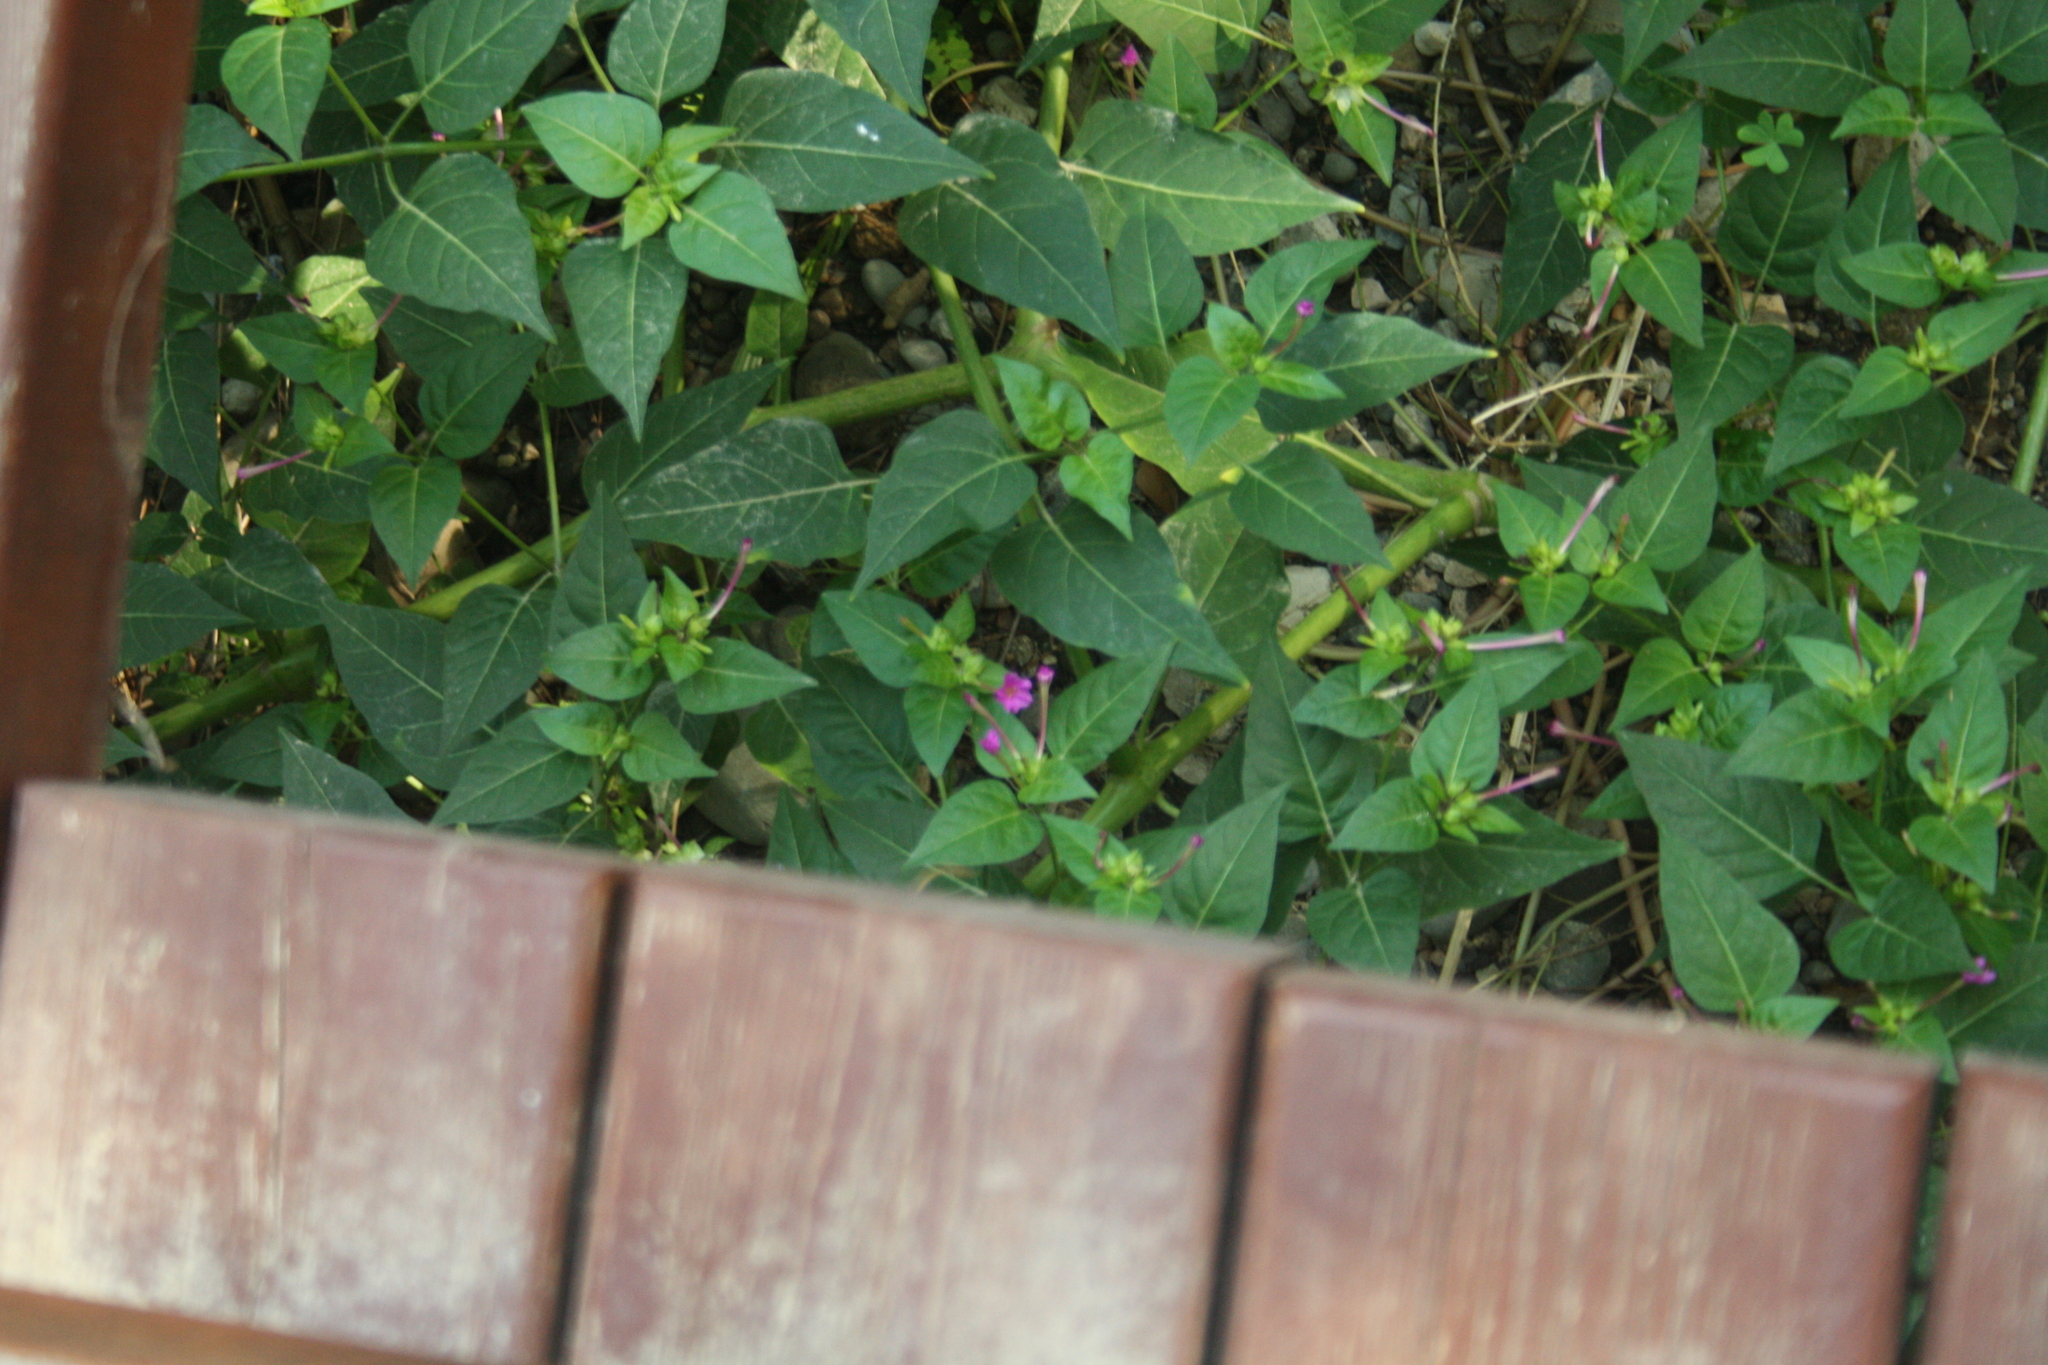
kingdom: Plantae
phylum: Tracheophyta
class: Magnoliopsida
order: Caryophyllales
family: Nyctaginaceae
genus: Mirabilis
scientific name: Mirabilis jalapa
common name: Marvel-of-peru
